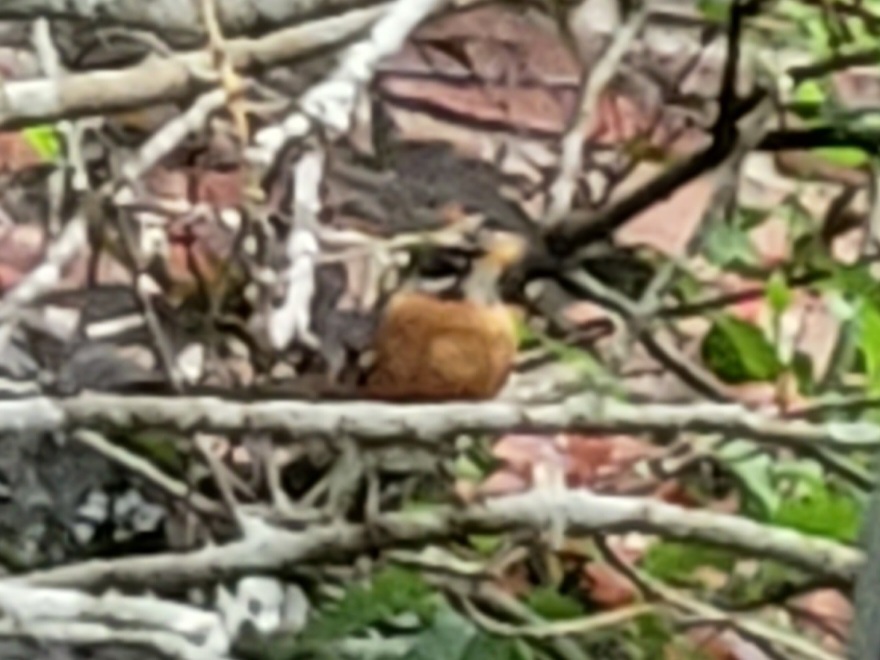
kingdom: Animalia
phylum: Chordata
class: Aves
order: Passeriformes
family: Turdidae
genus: Turdus
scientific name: Turdus migratorius
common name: American robin
